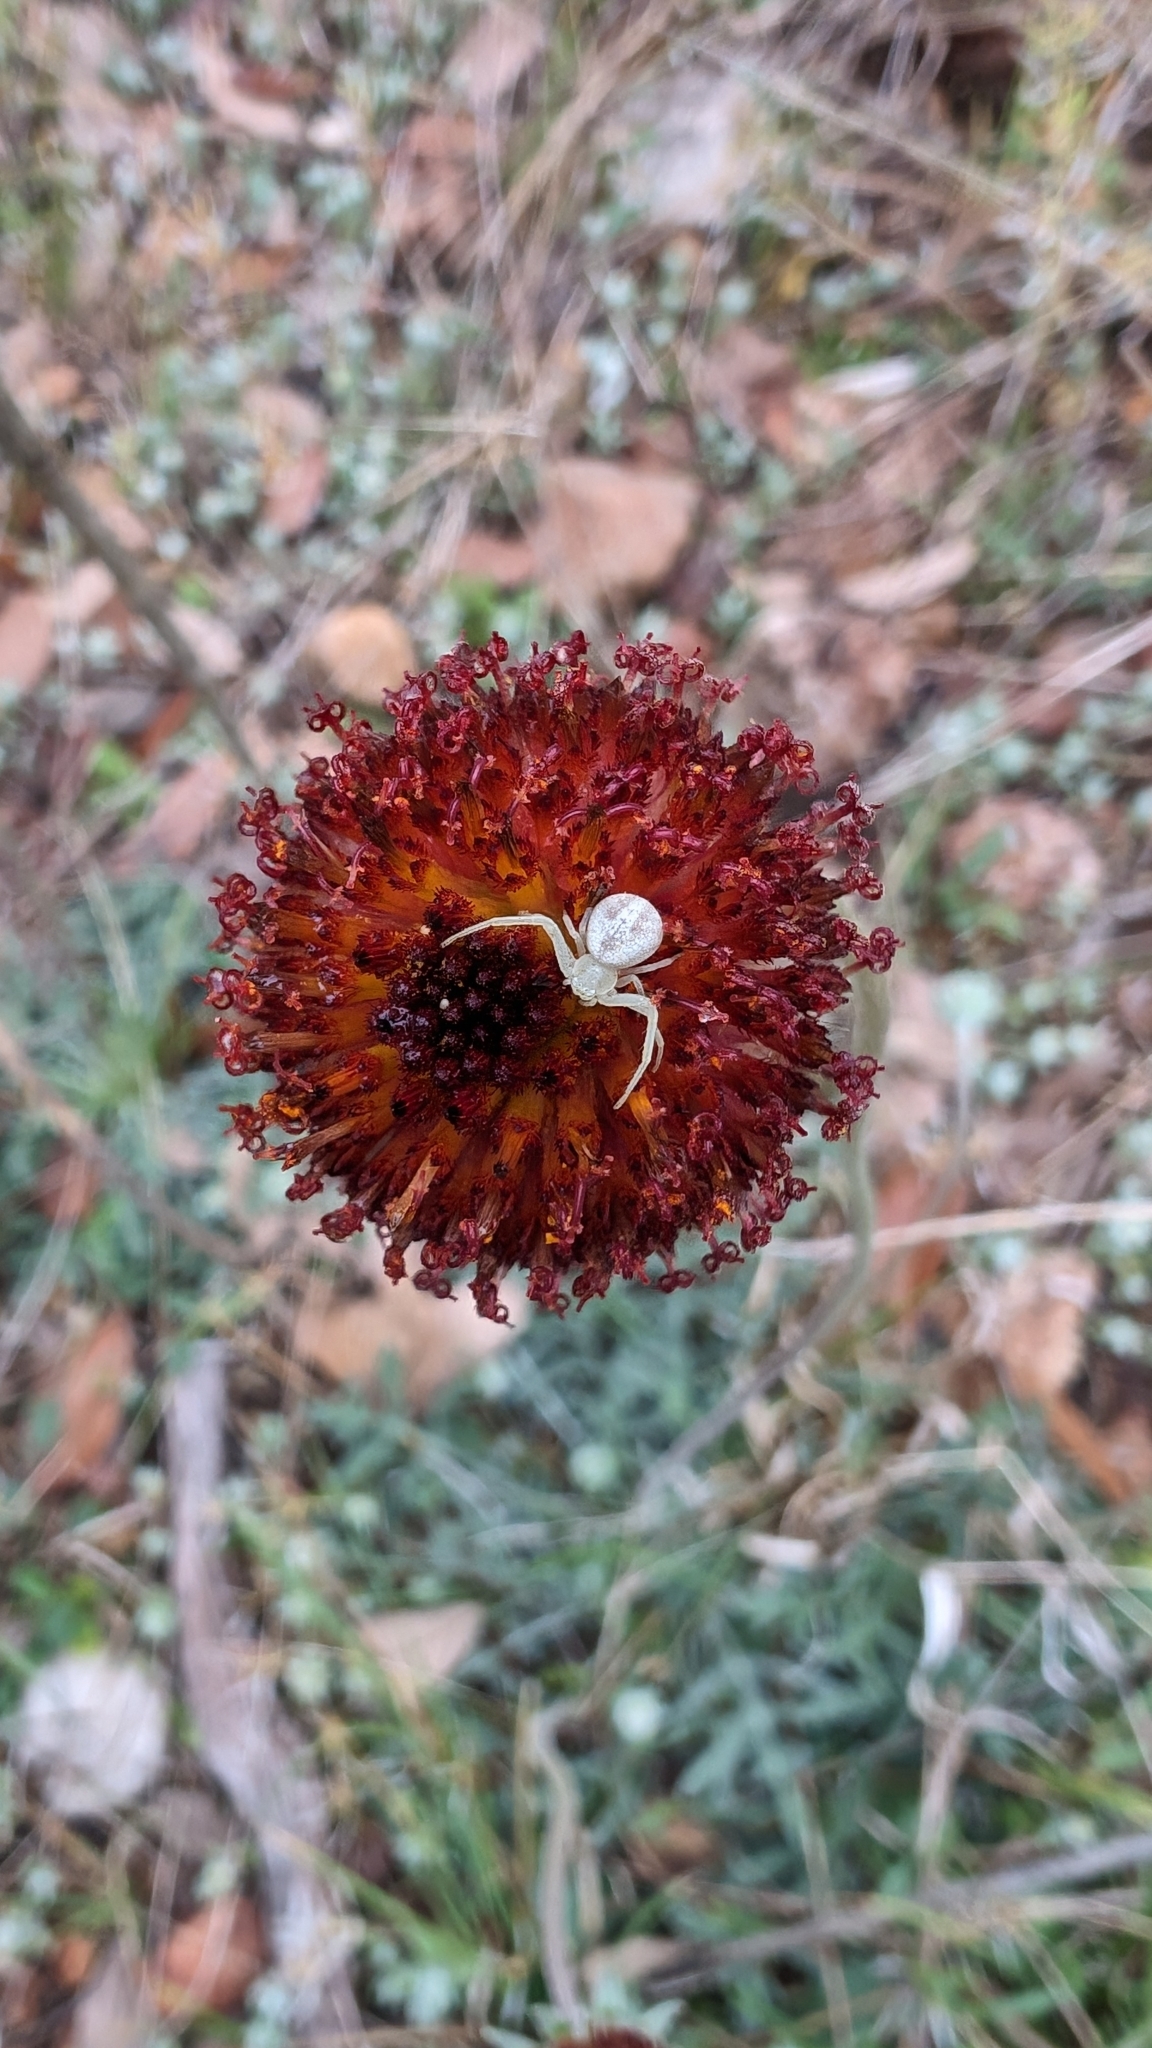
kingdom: Plantae
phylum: Tracheophyta
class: Magnoliopsida
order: Asterales
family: Asteraceae
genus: Gaillardia
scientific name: Gaillardia suavis
